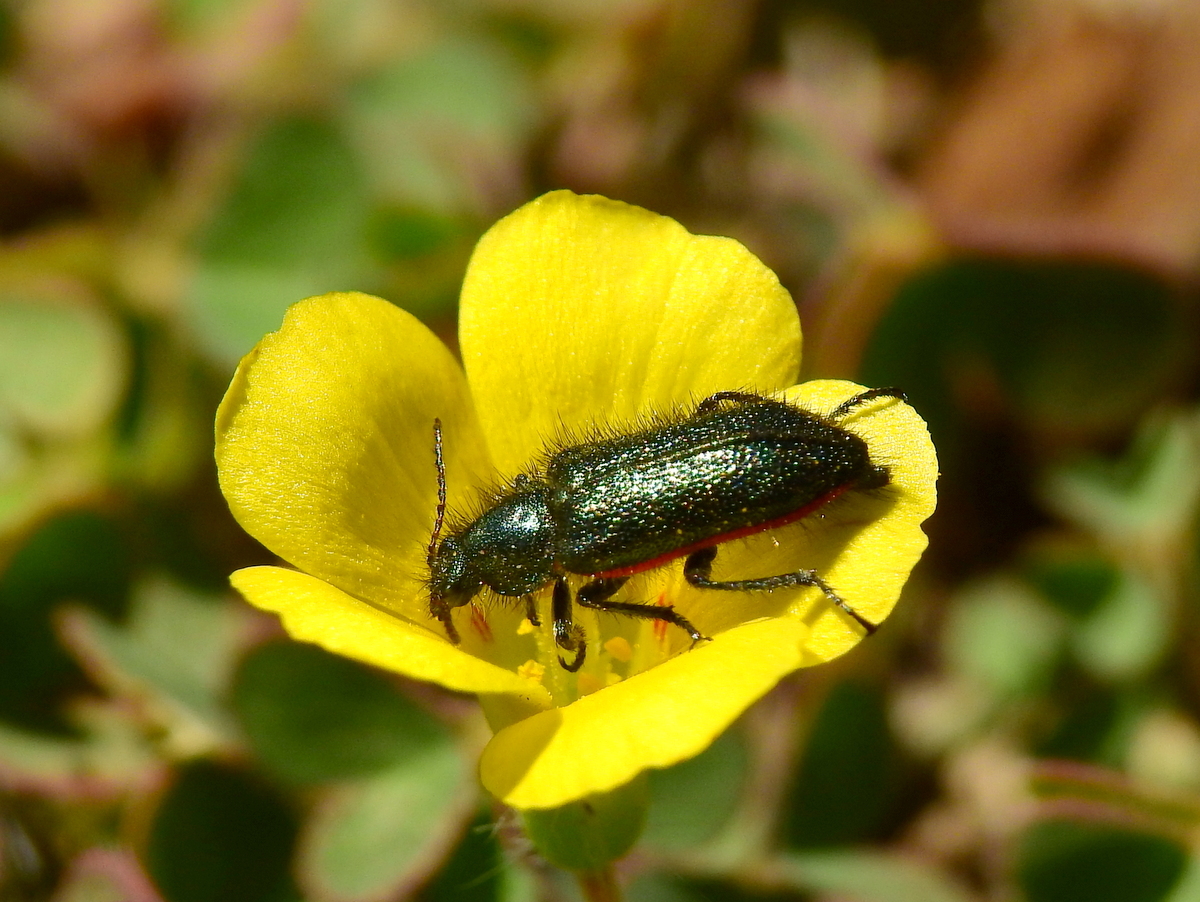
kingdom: Animalia
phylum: Arthropoda
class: Insecta
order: Coleoptera
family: Melyridae
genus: Astylus
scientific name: Astylus
